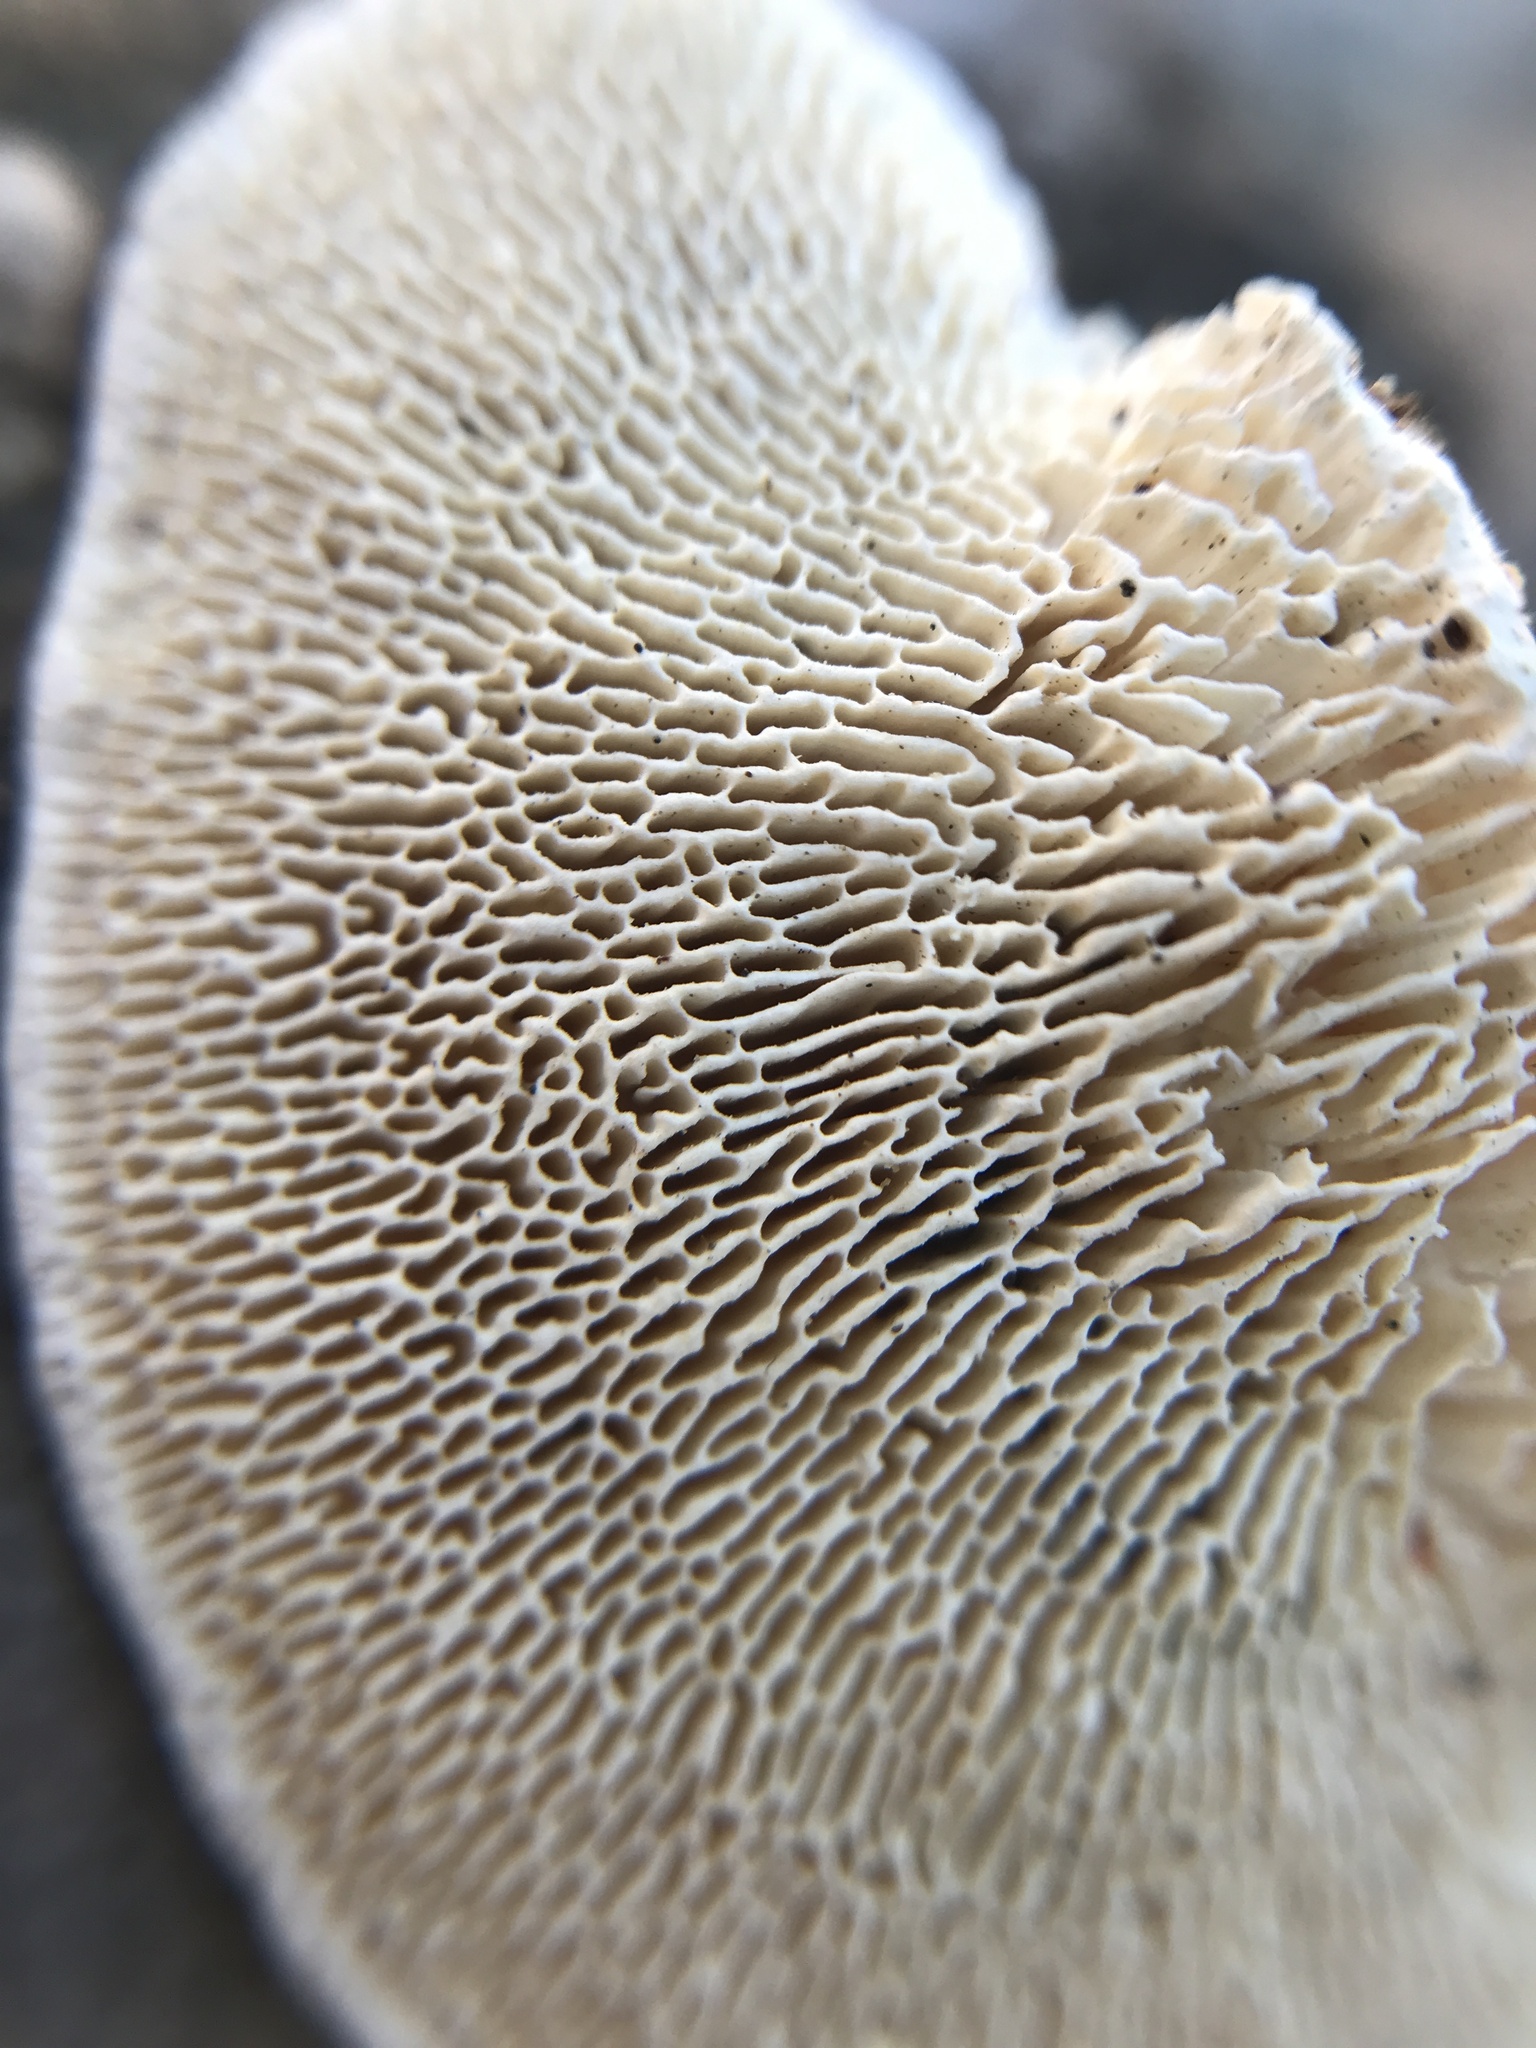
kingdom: Fungi
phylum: Basidiomycota
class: Agaricomycetes
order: Polyporales
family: Polyporaceae
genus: Trametes
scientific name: Trametes gibbosa
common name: Lumpy bracket
